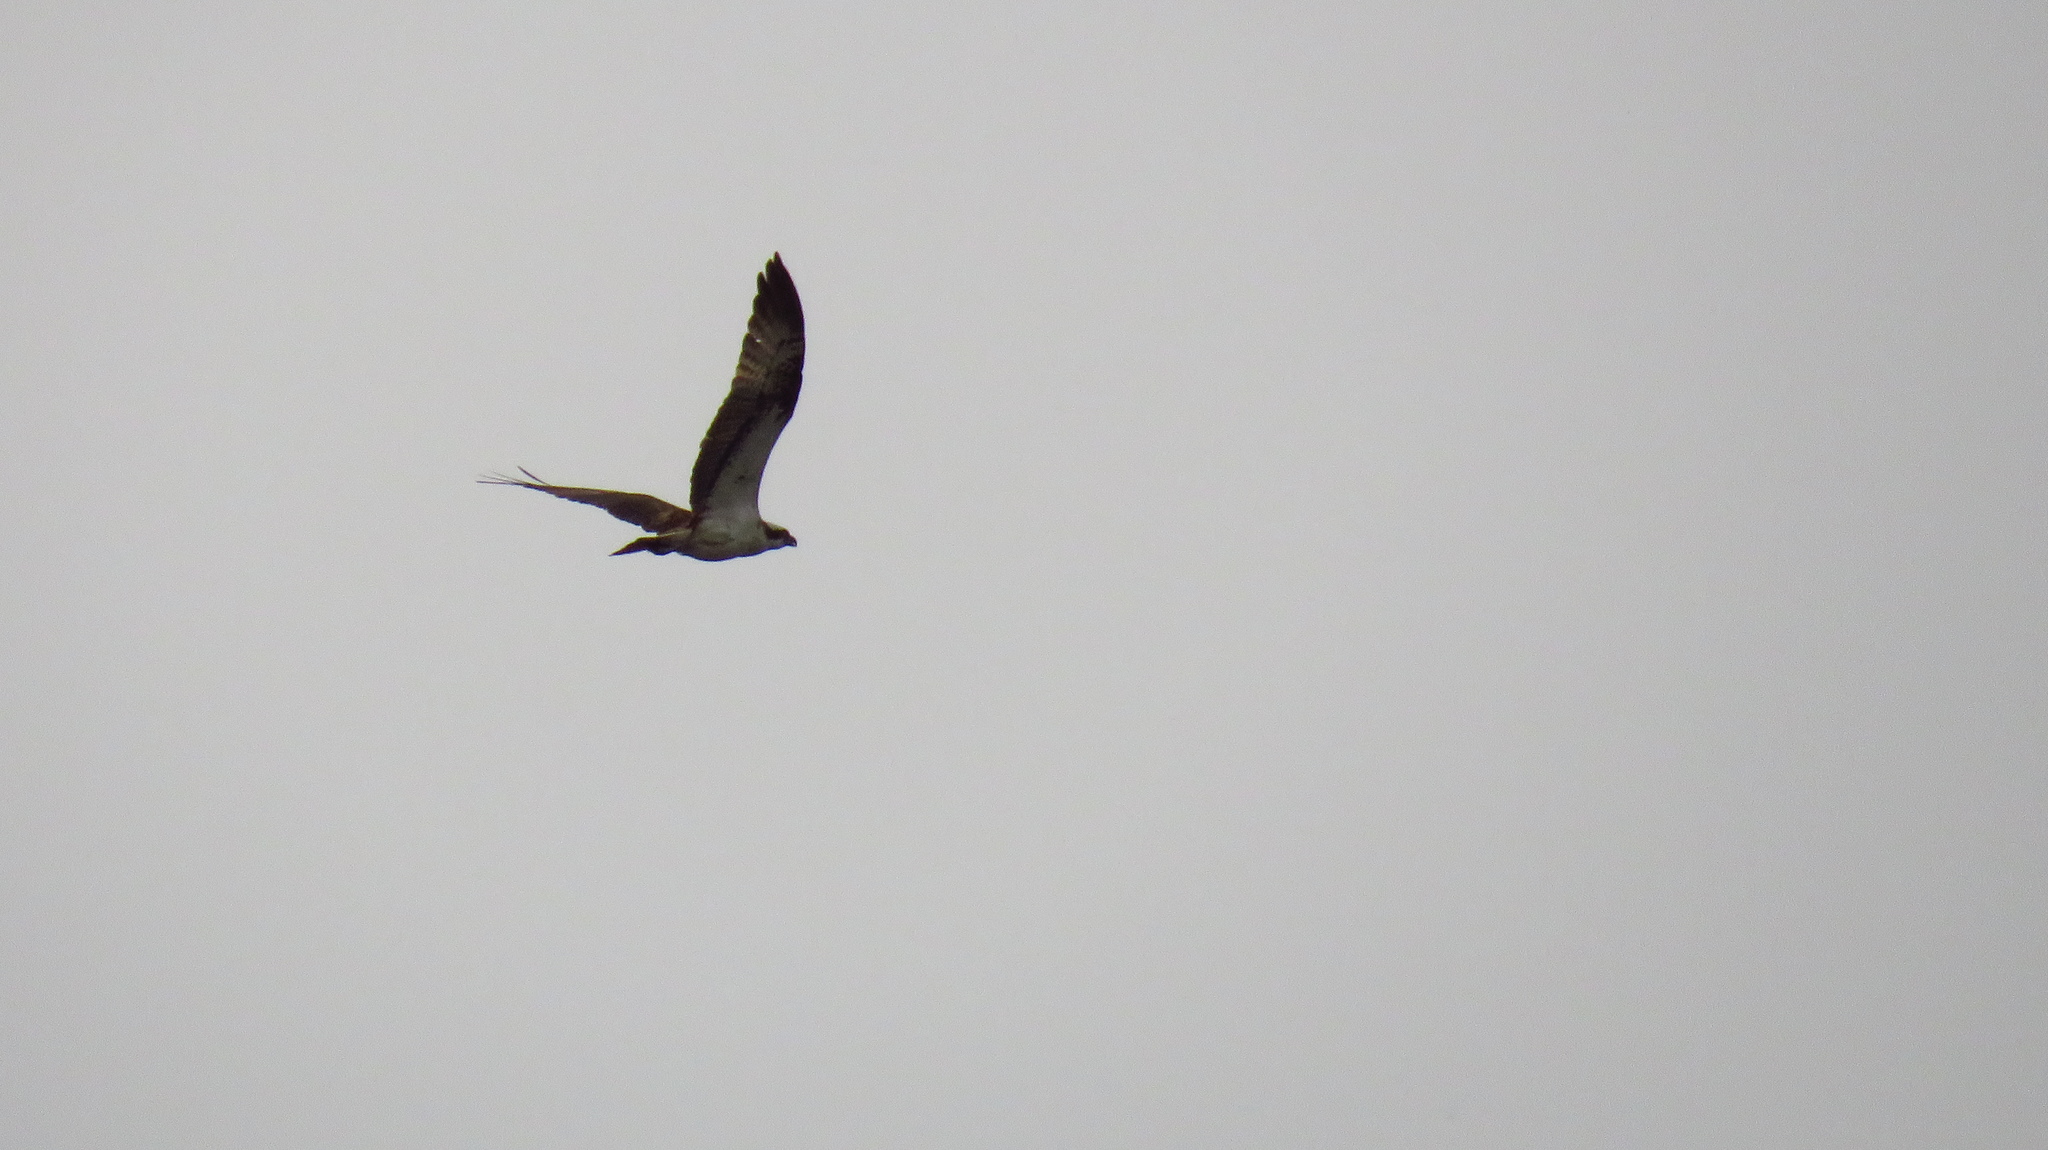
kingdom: Animalia
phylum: Chordata
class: Aves
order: Accipitriformes
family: Pandionidae
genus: Pandion
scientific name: Pandion haliaetus
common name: Osprey
